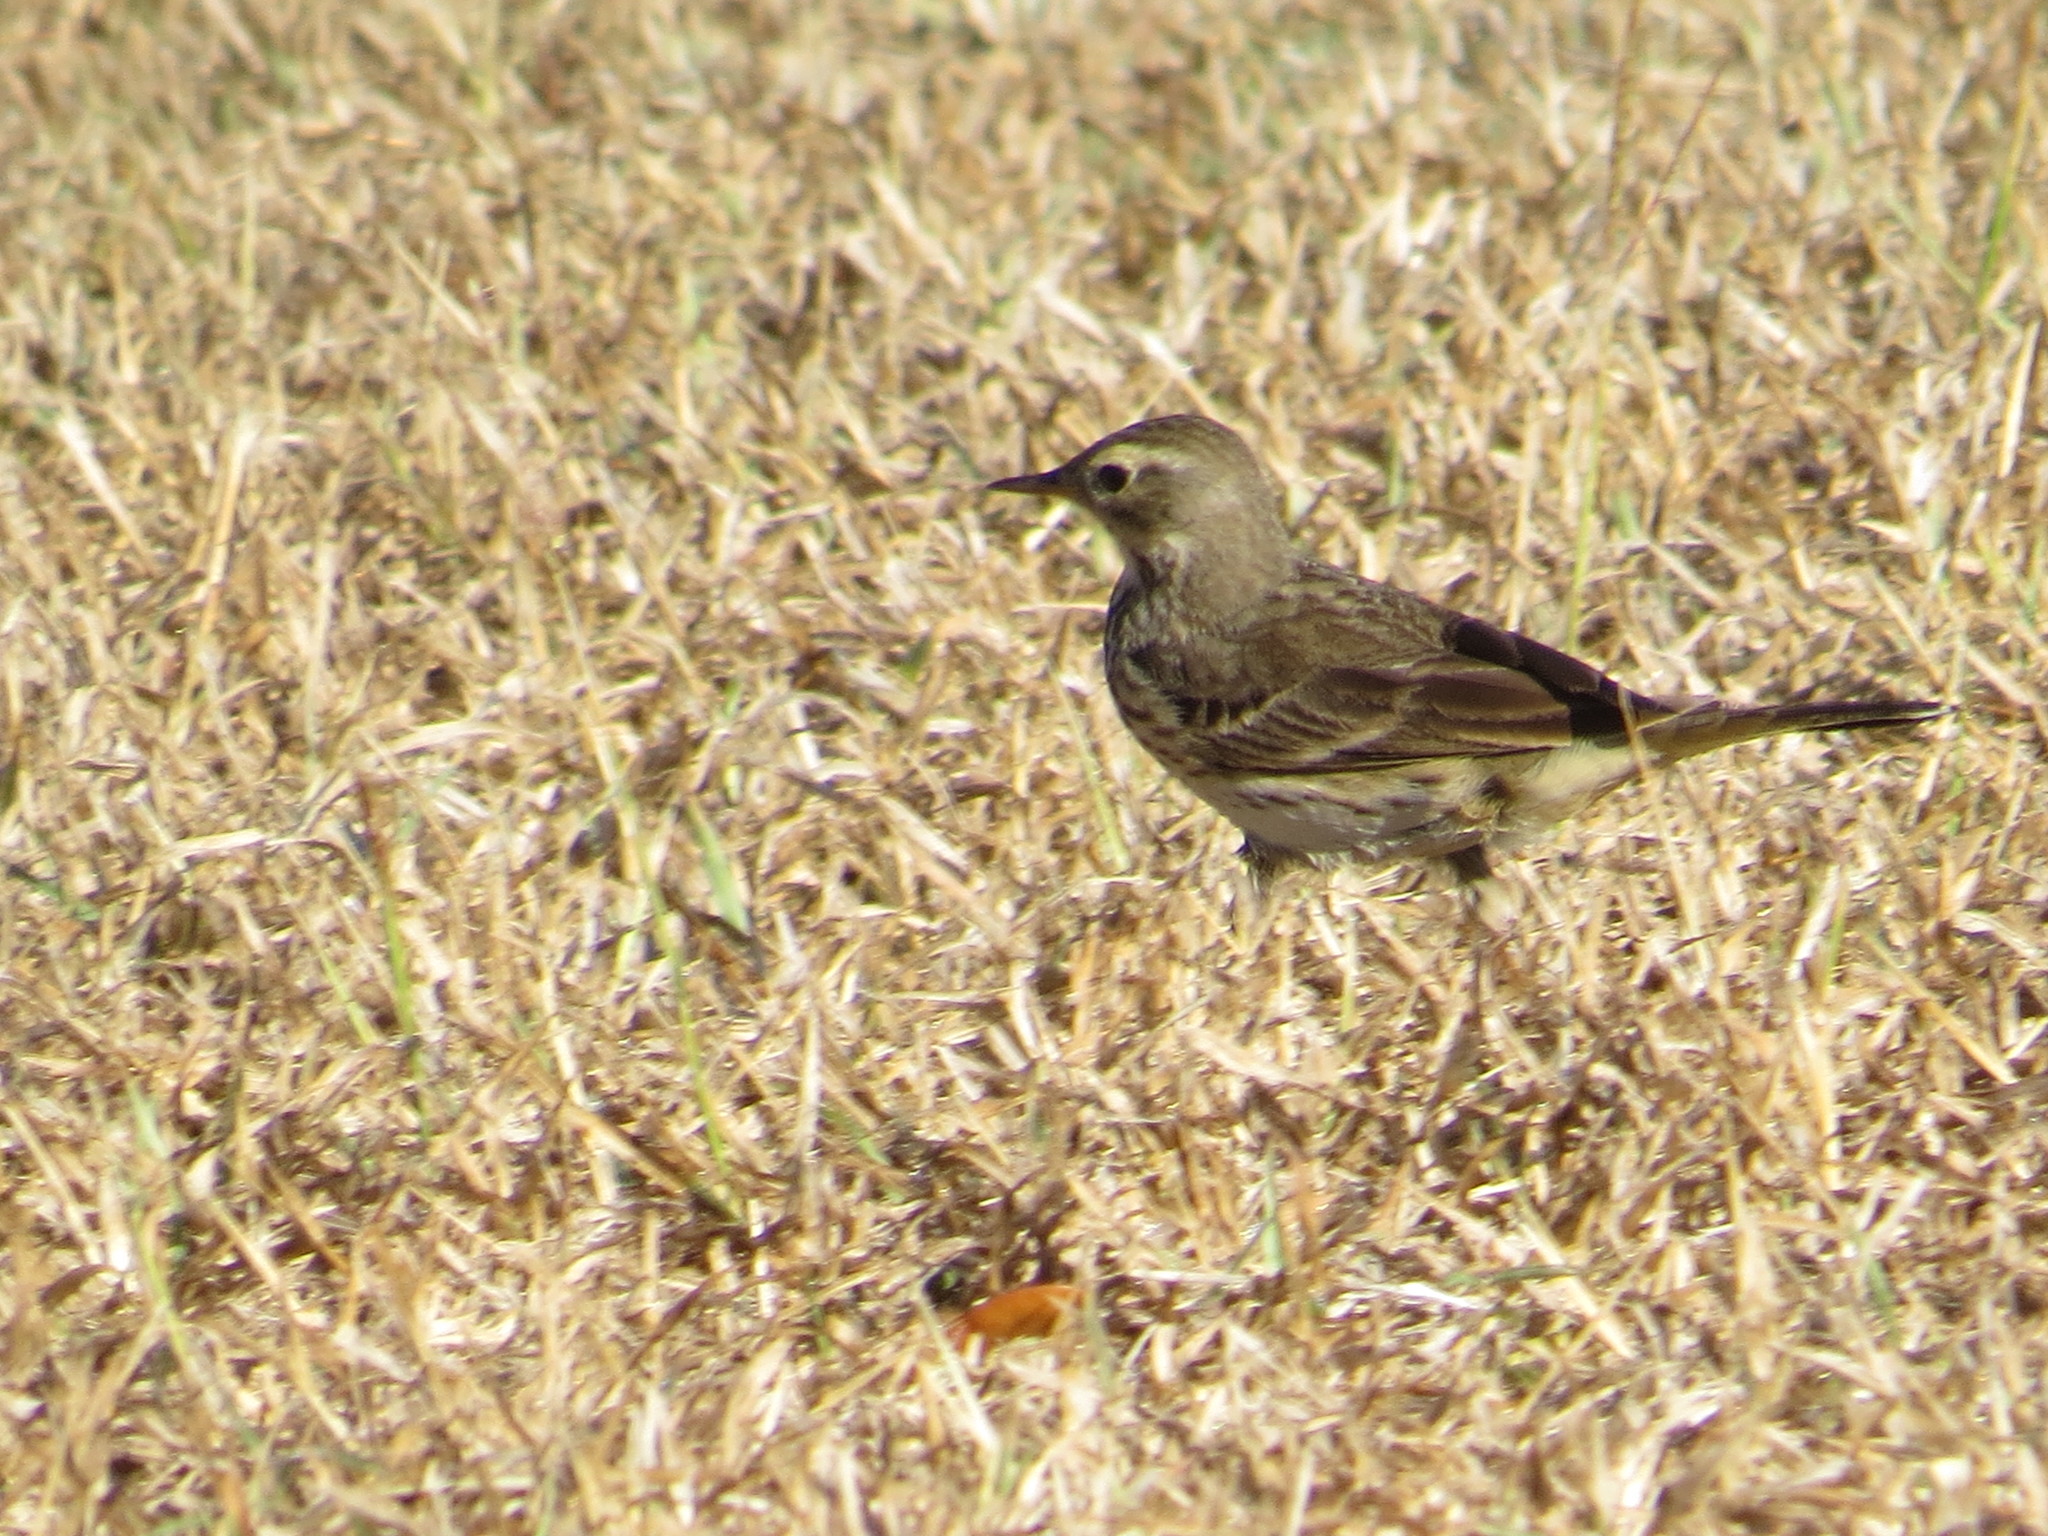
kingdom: Animalia
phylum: Chordata
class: Aves
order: Passeriformes
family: Motacillidae
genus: Anthus
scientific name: Anthus rubescens
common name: Buff-bellied pipit
